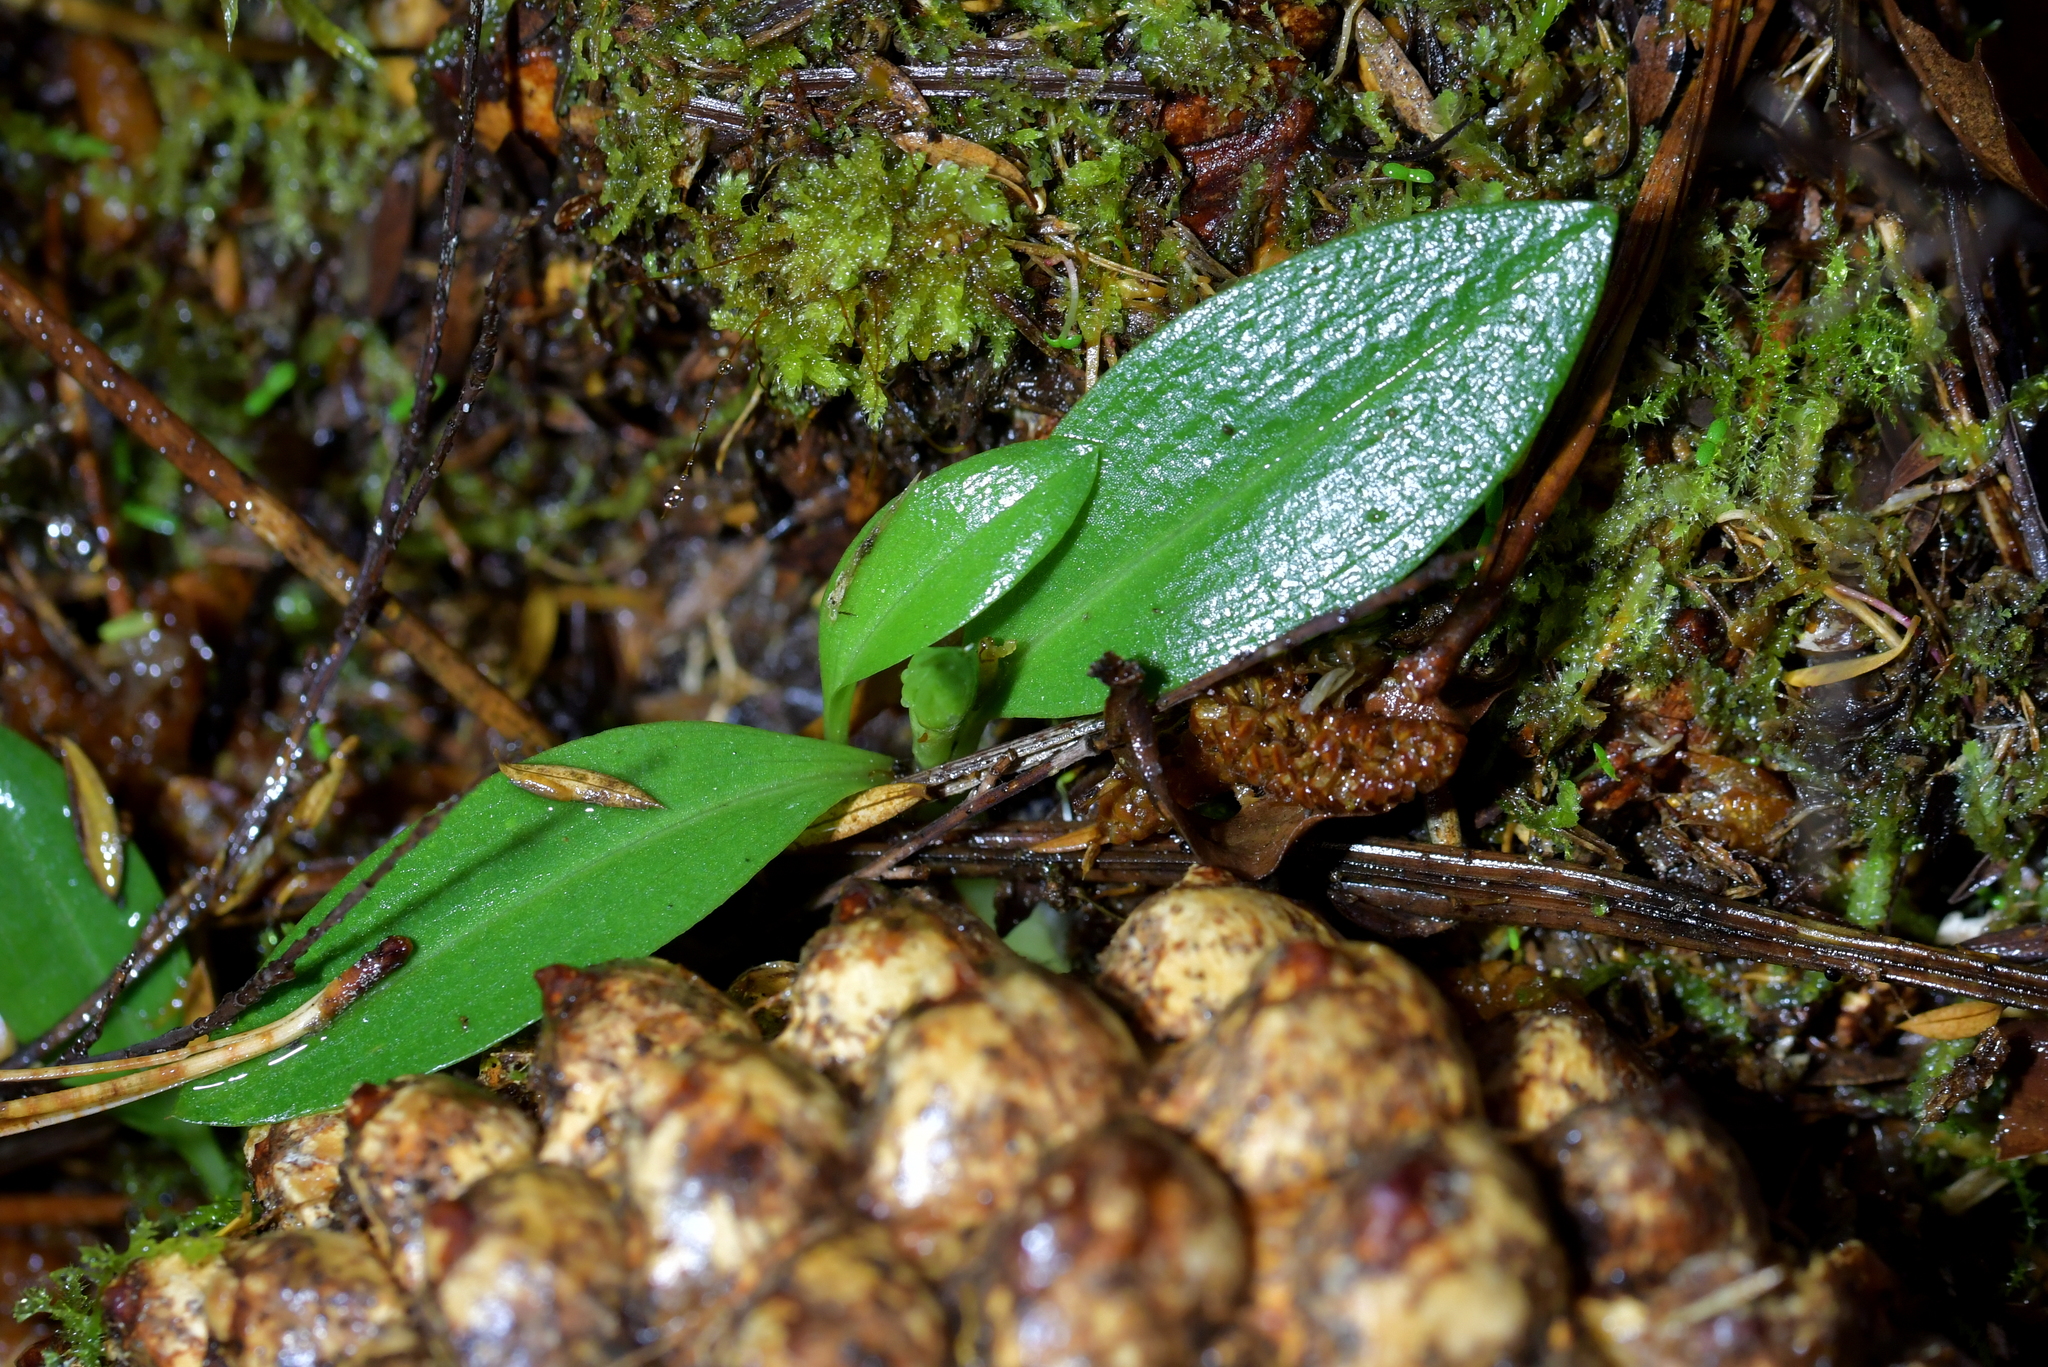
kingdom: Plantae
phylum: Tracheophyta
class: Liliopsida
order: Asparagales
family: Orchidaceae
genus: Chiloglottis
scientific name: Chiloglottis cornuta
